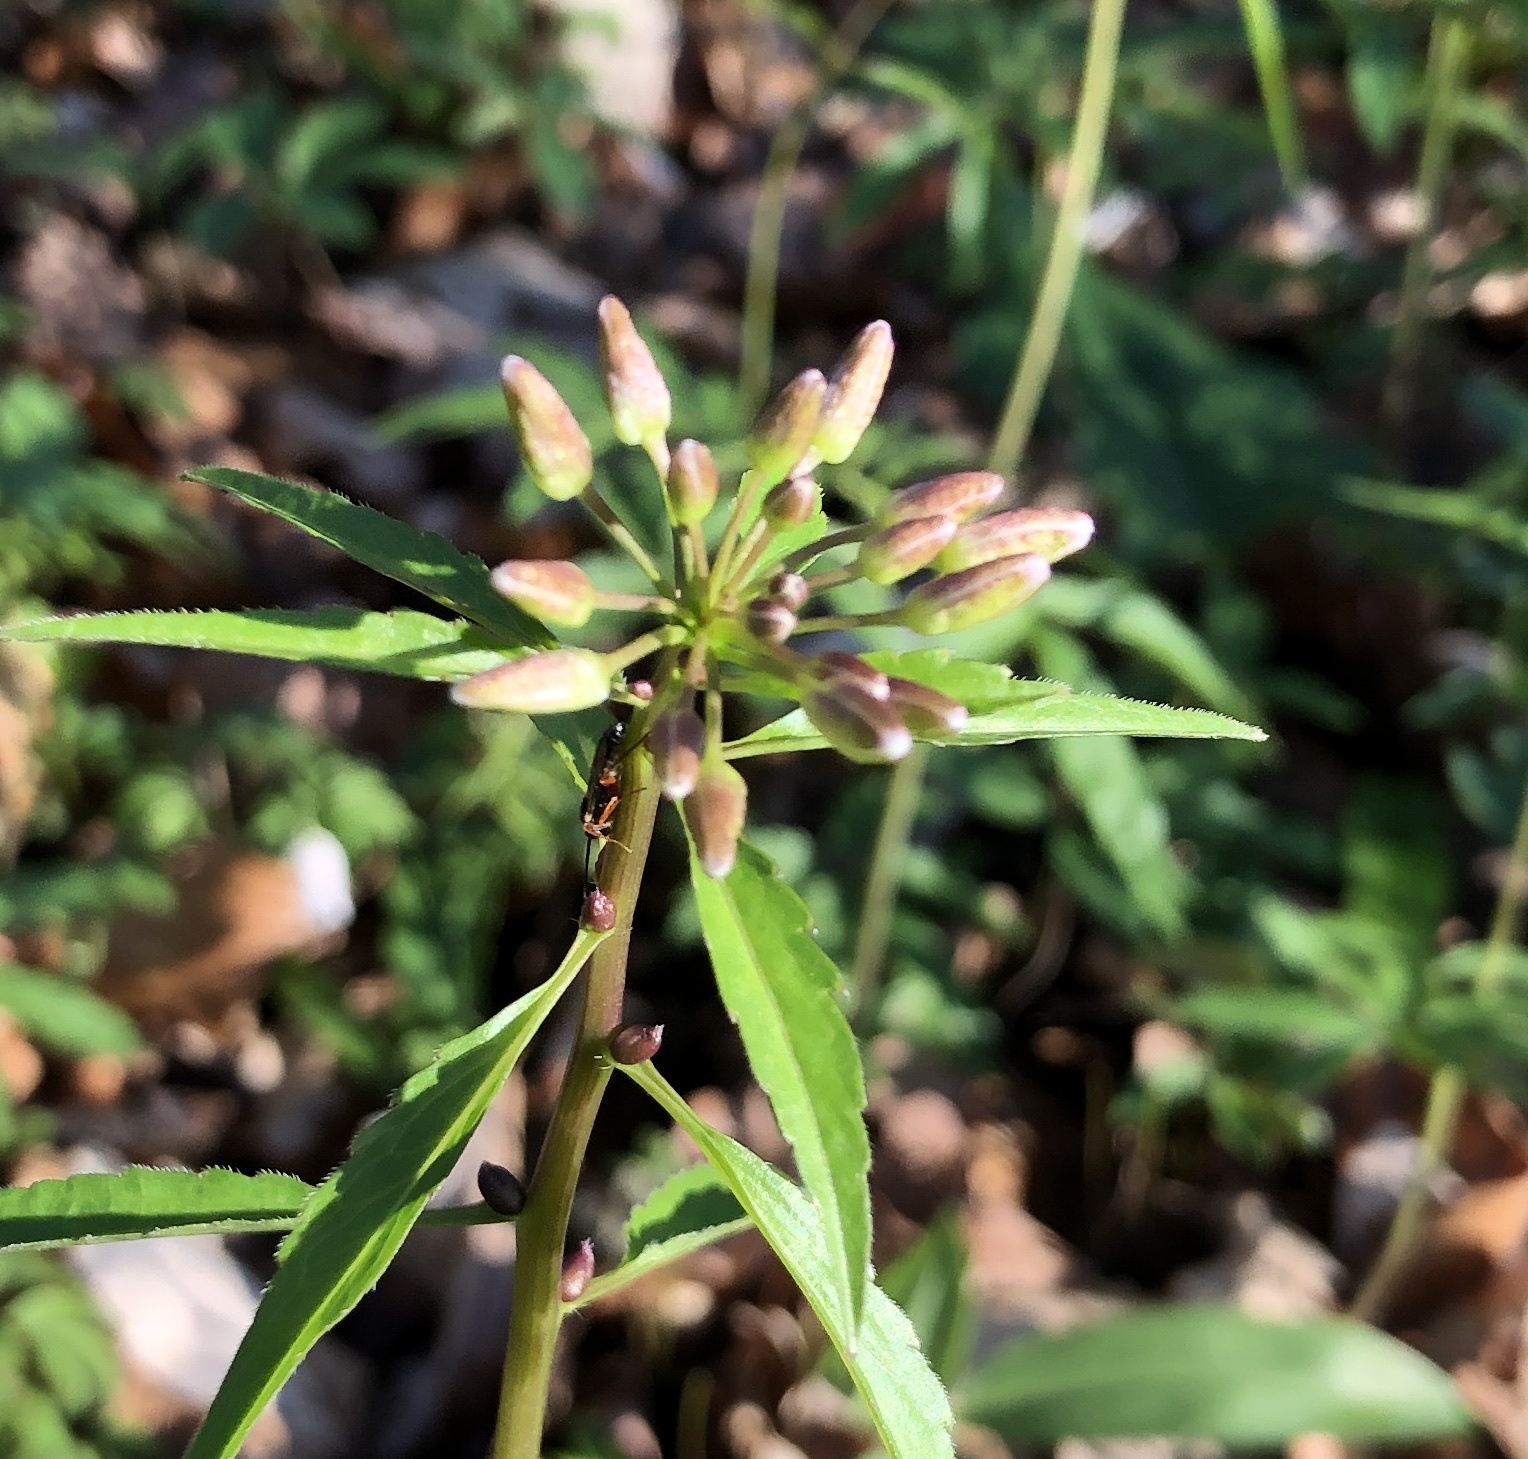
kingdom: Plantae
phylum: Tracheophyta
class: Magnoliopsida
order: Brassicales
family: Brassicaceae
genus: Cardamine
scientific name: Cardamine bulbifera
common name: Coralroot bittercress
